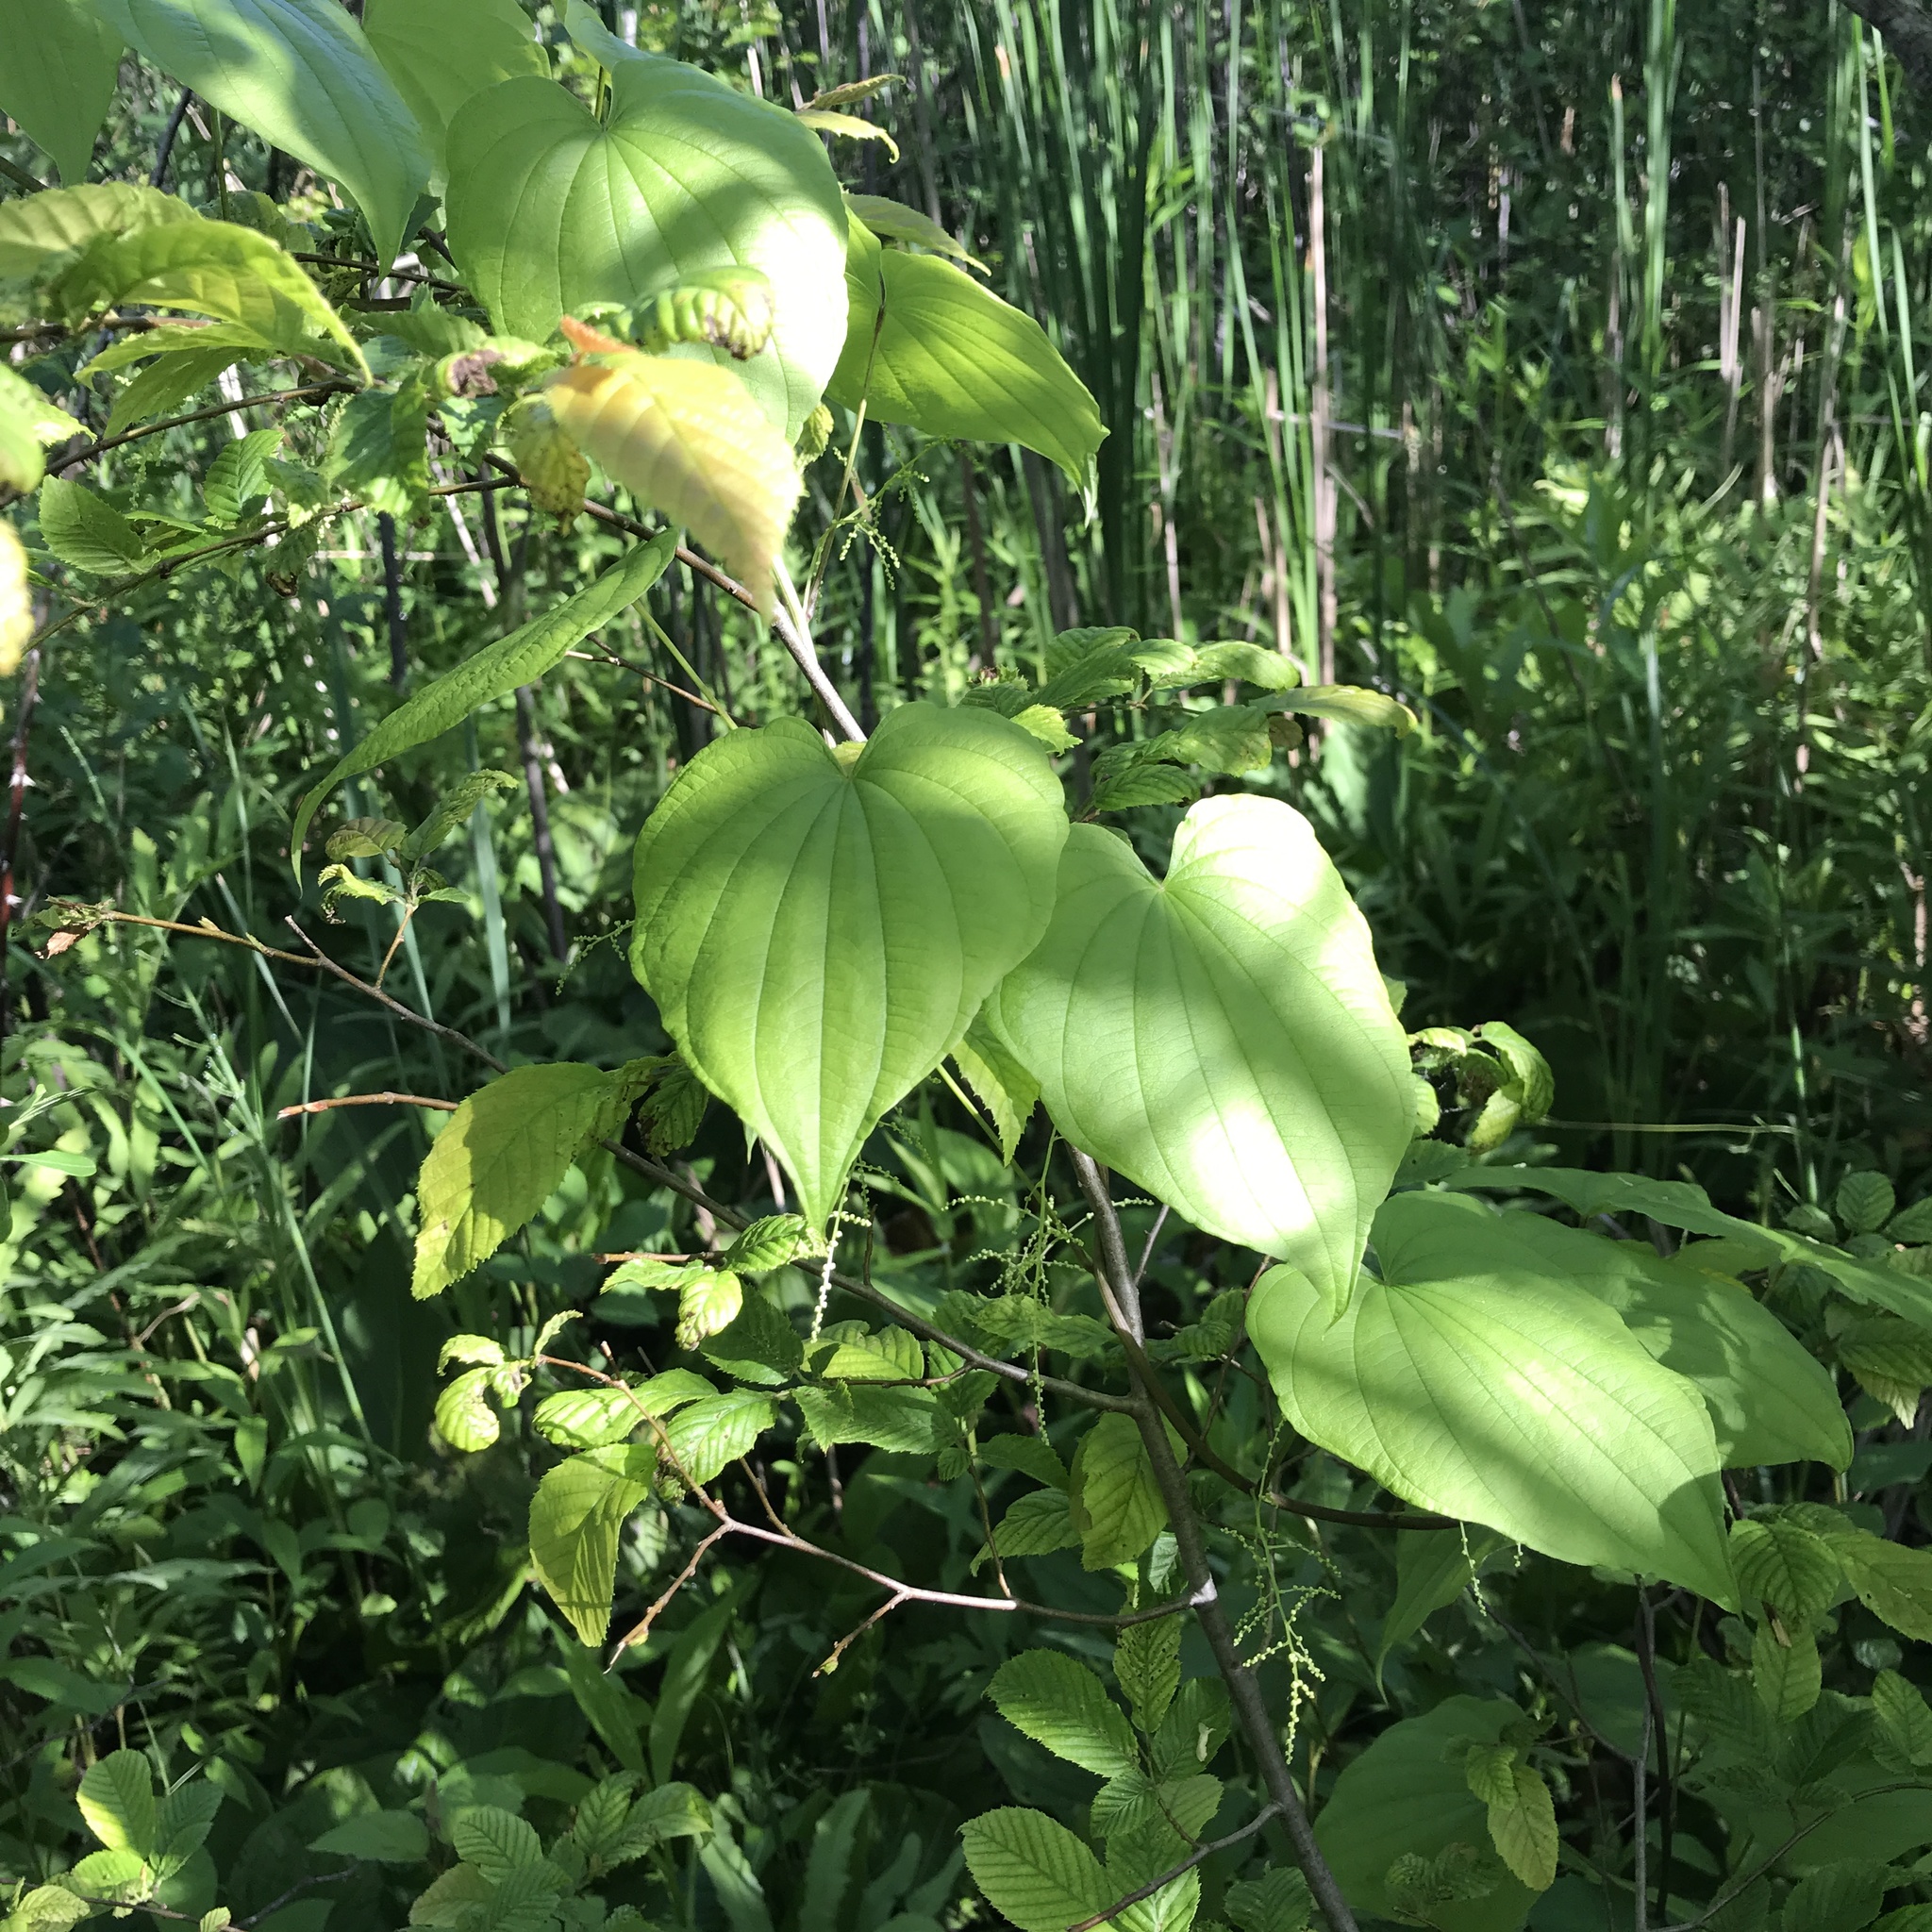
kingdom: Plantae
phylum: Tracheophyta
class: Liliopsida
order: Dioscoreales
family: Dioscoreaceae
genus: Dioscorea
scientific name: Dioscorea villosa
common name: Wild yam
